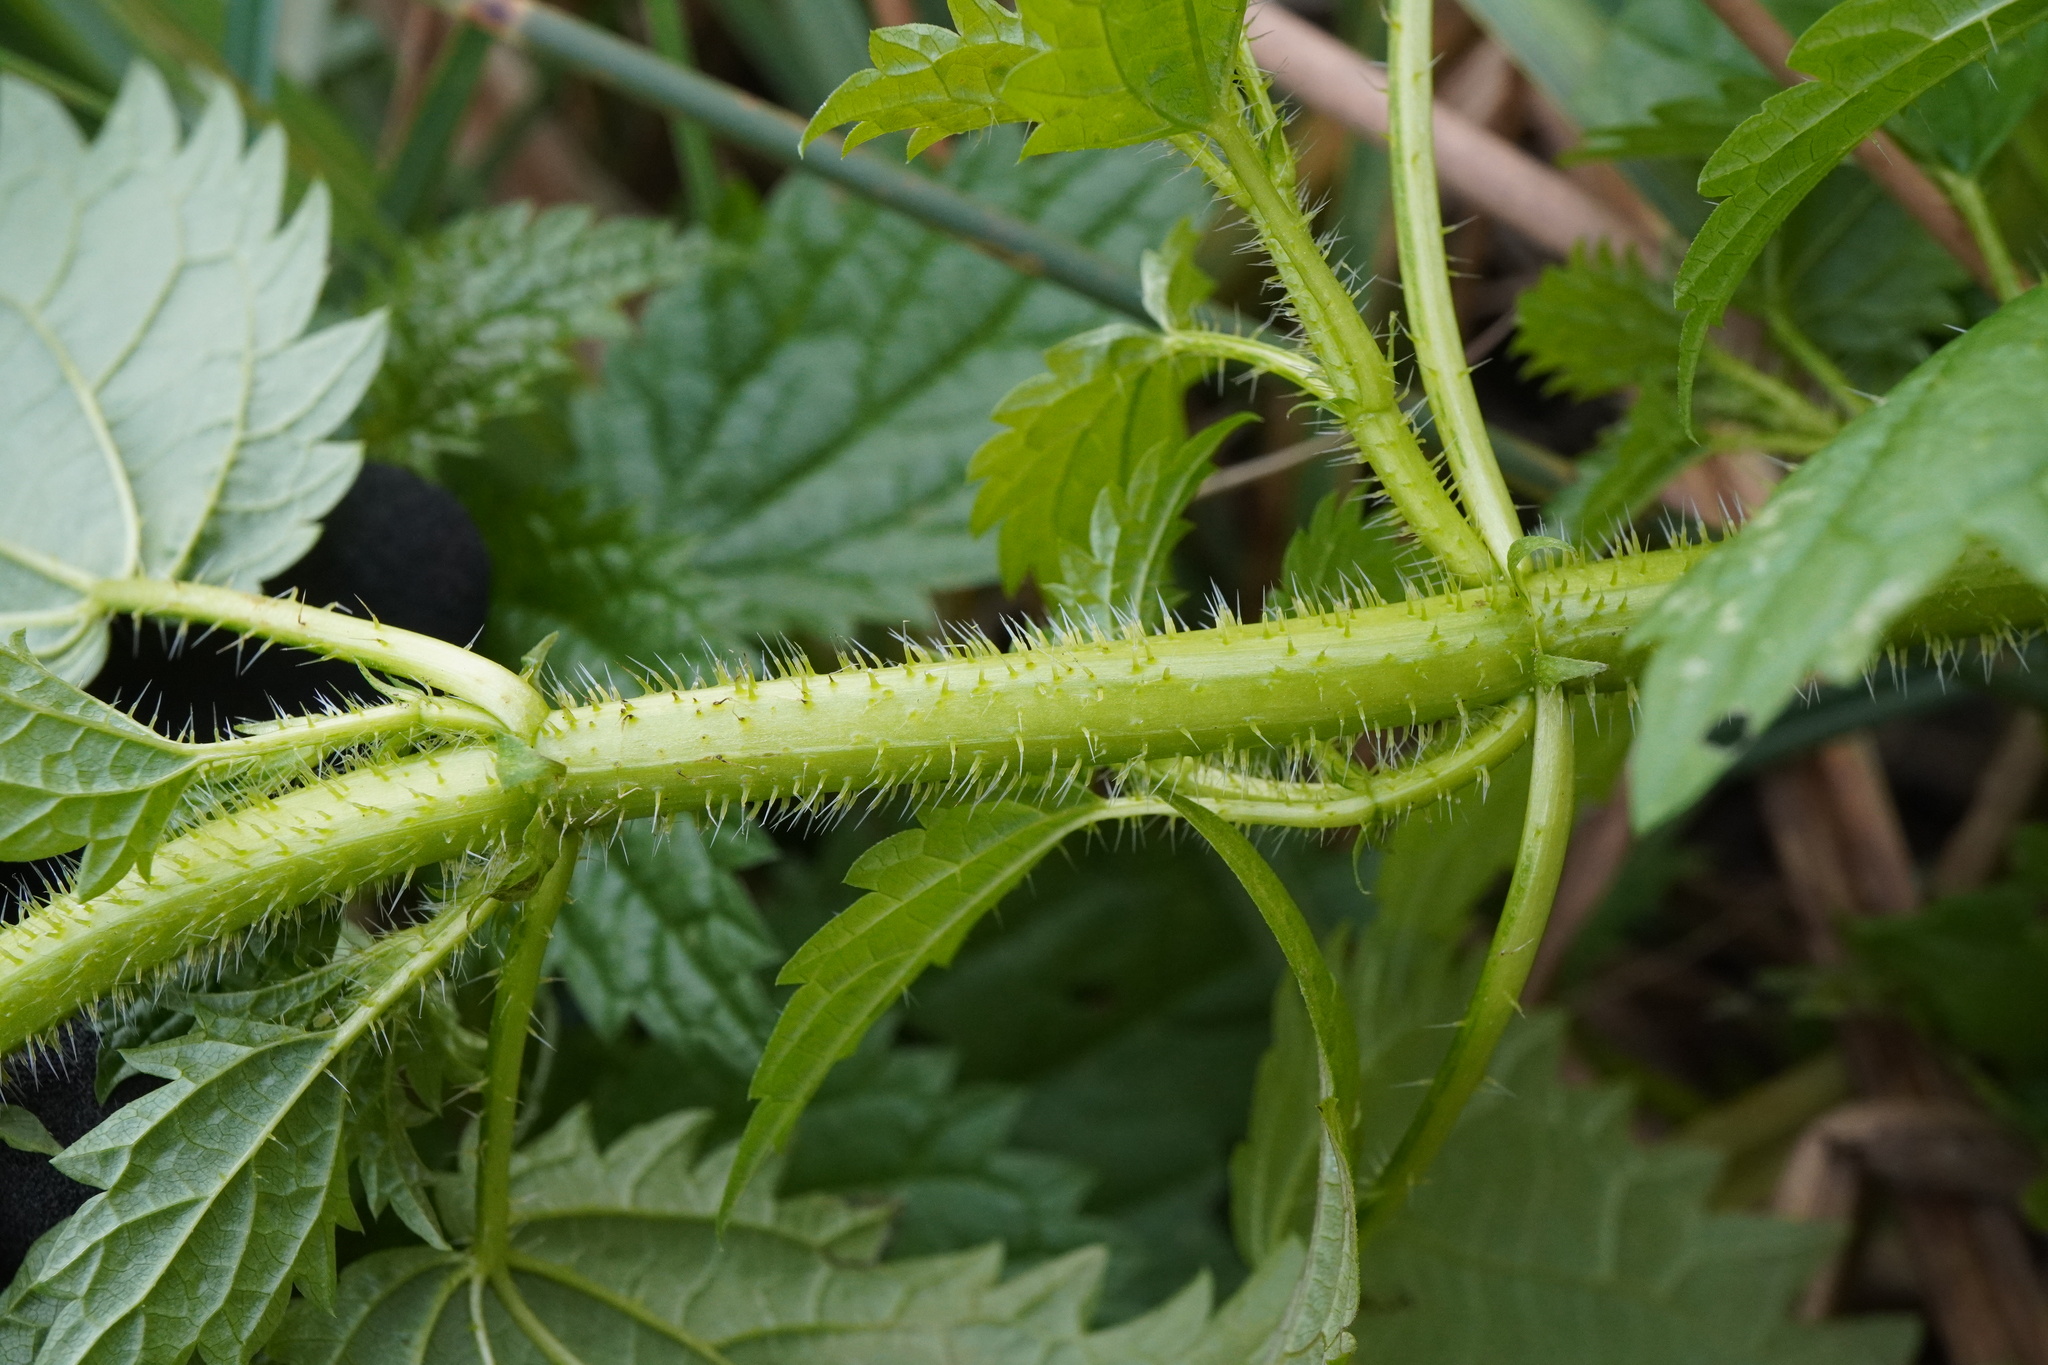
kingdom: Plantae
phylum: Tracheophyta
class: Magnoliopsida
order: Rosales
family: Urticaceae
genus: Urtica
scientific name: Urtica kioviensis
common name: Kievan nettle
